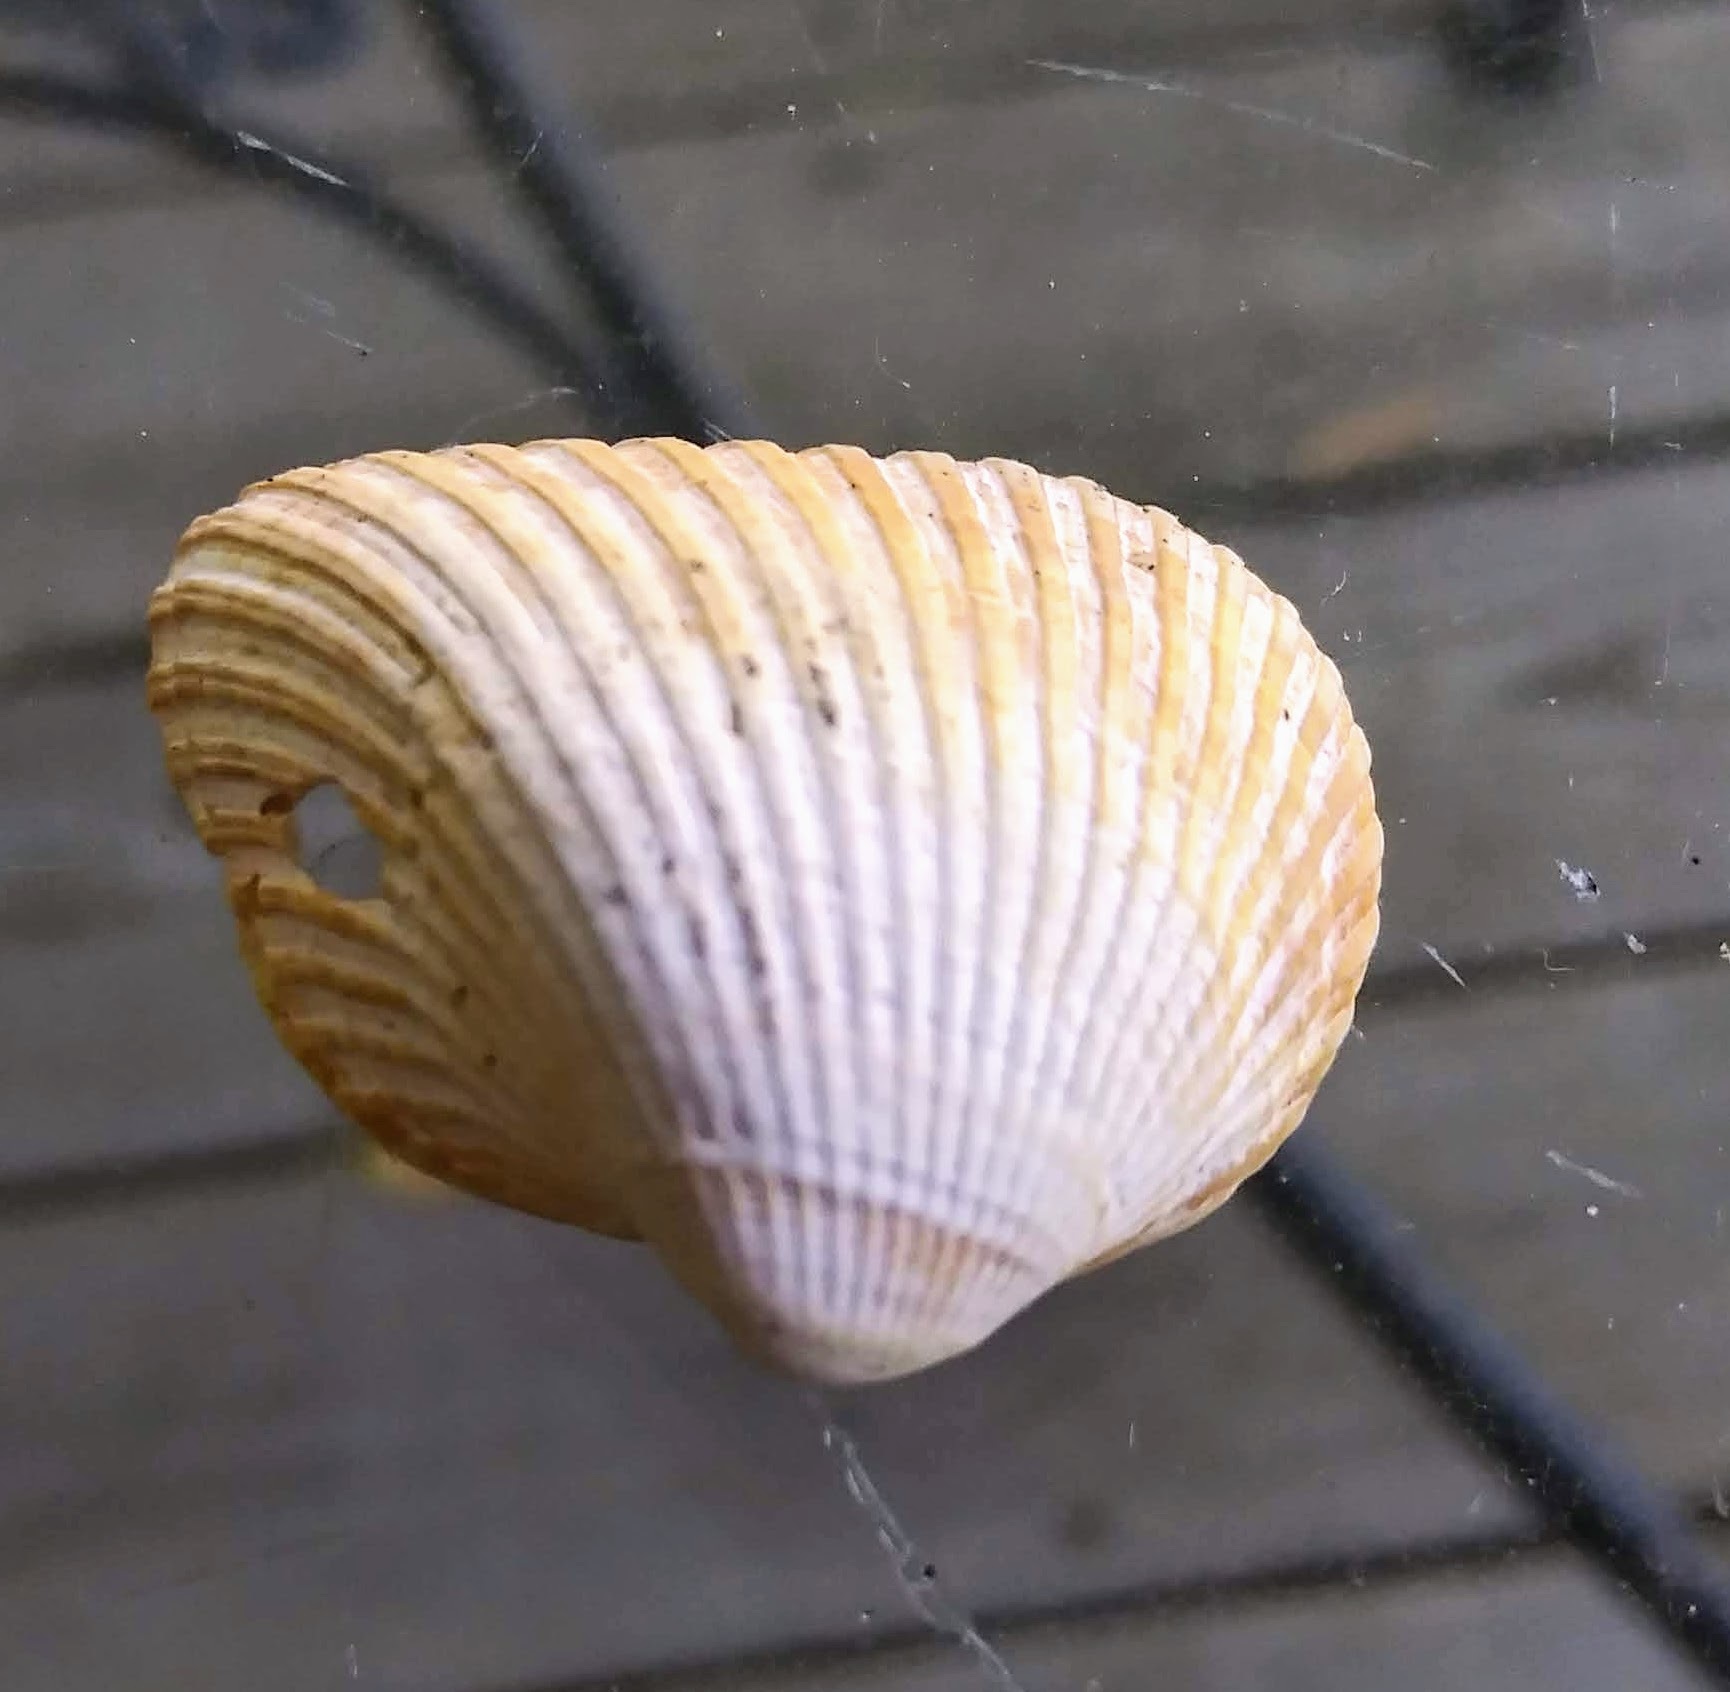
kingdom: Animalia
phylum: Mollusca
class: Bivalvia
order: Arcida
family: Noetiidae
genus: Noetia
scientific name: Noetia ponderosa
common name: Ponderous ark
